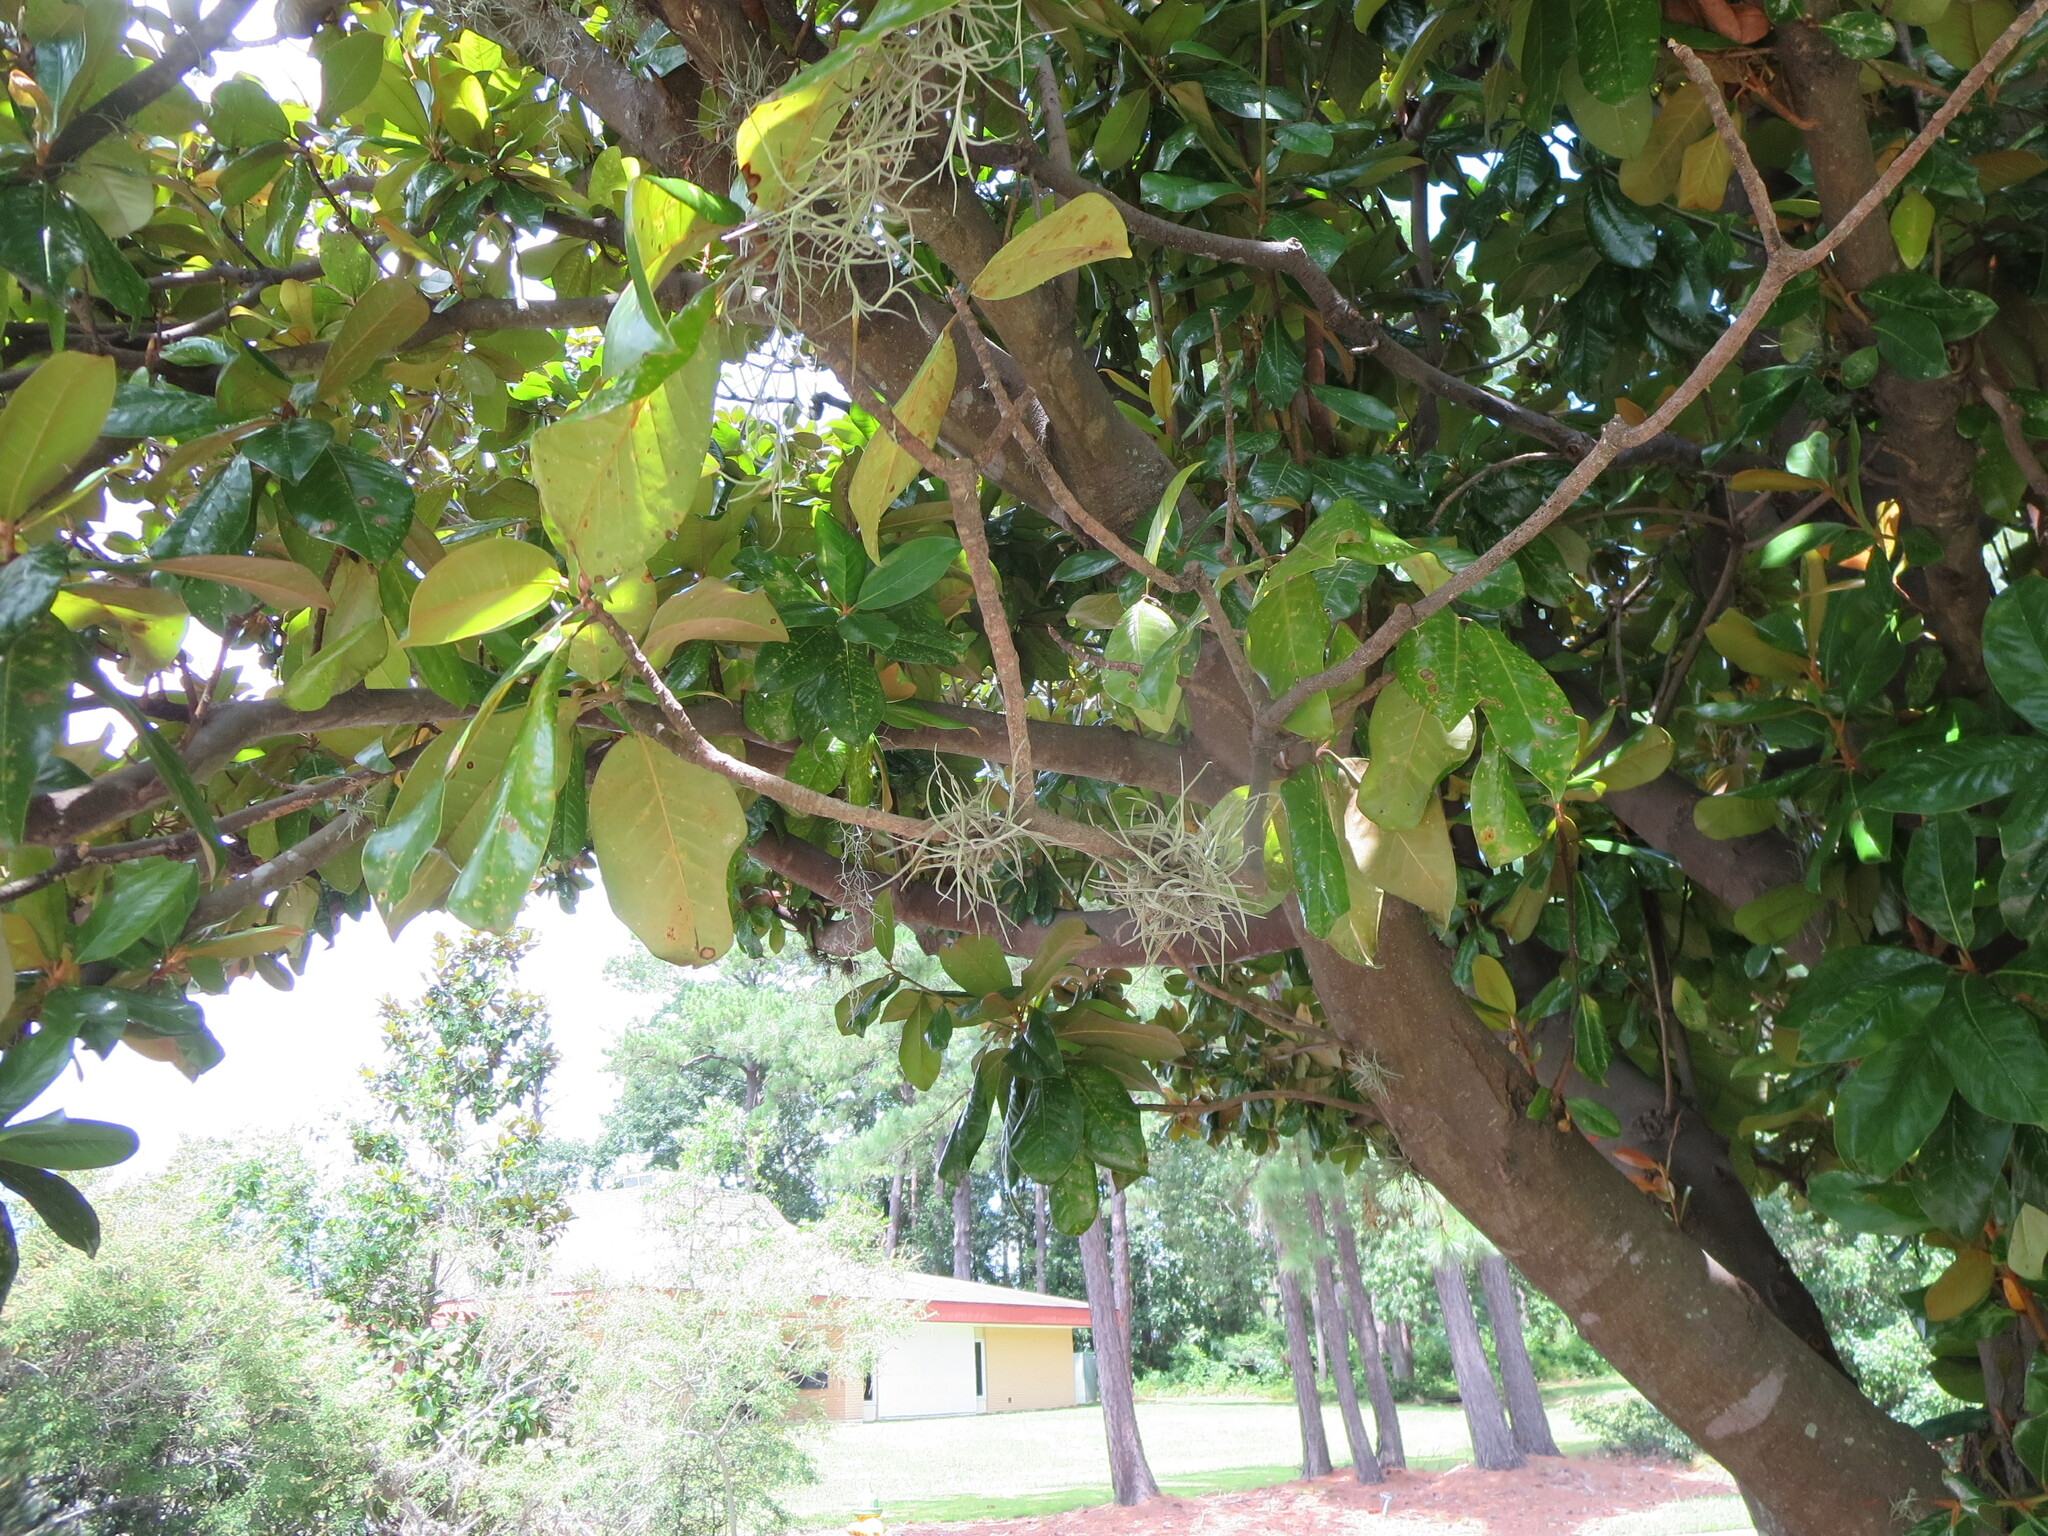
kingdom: Plantae
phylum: Tracheophyta
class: Liliopsida
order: Poales
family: Bromeliaceae
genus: Tillandsia
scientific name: Tillandsia recurvata
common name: Small ballmoss
